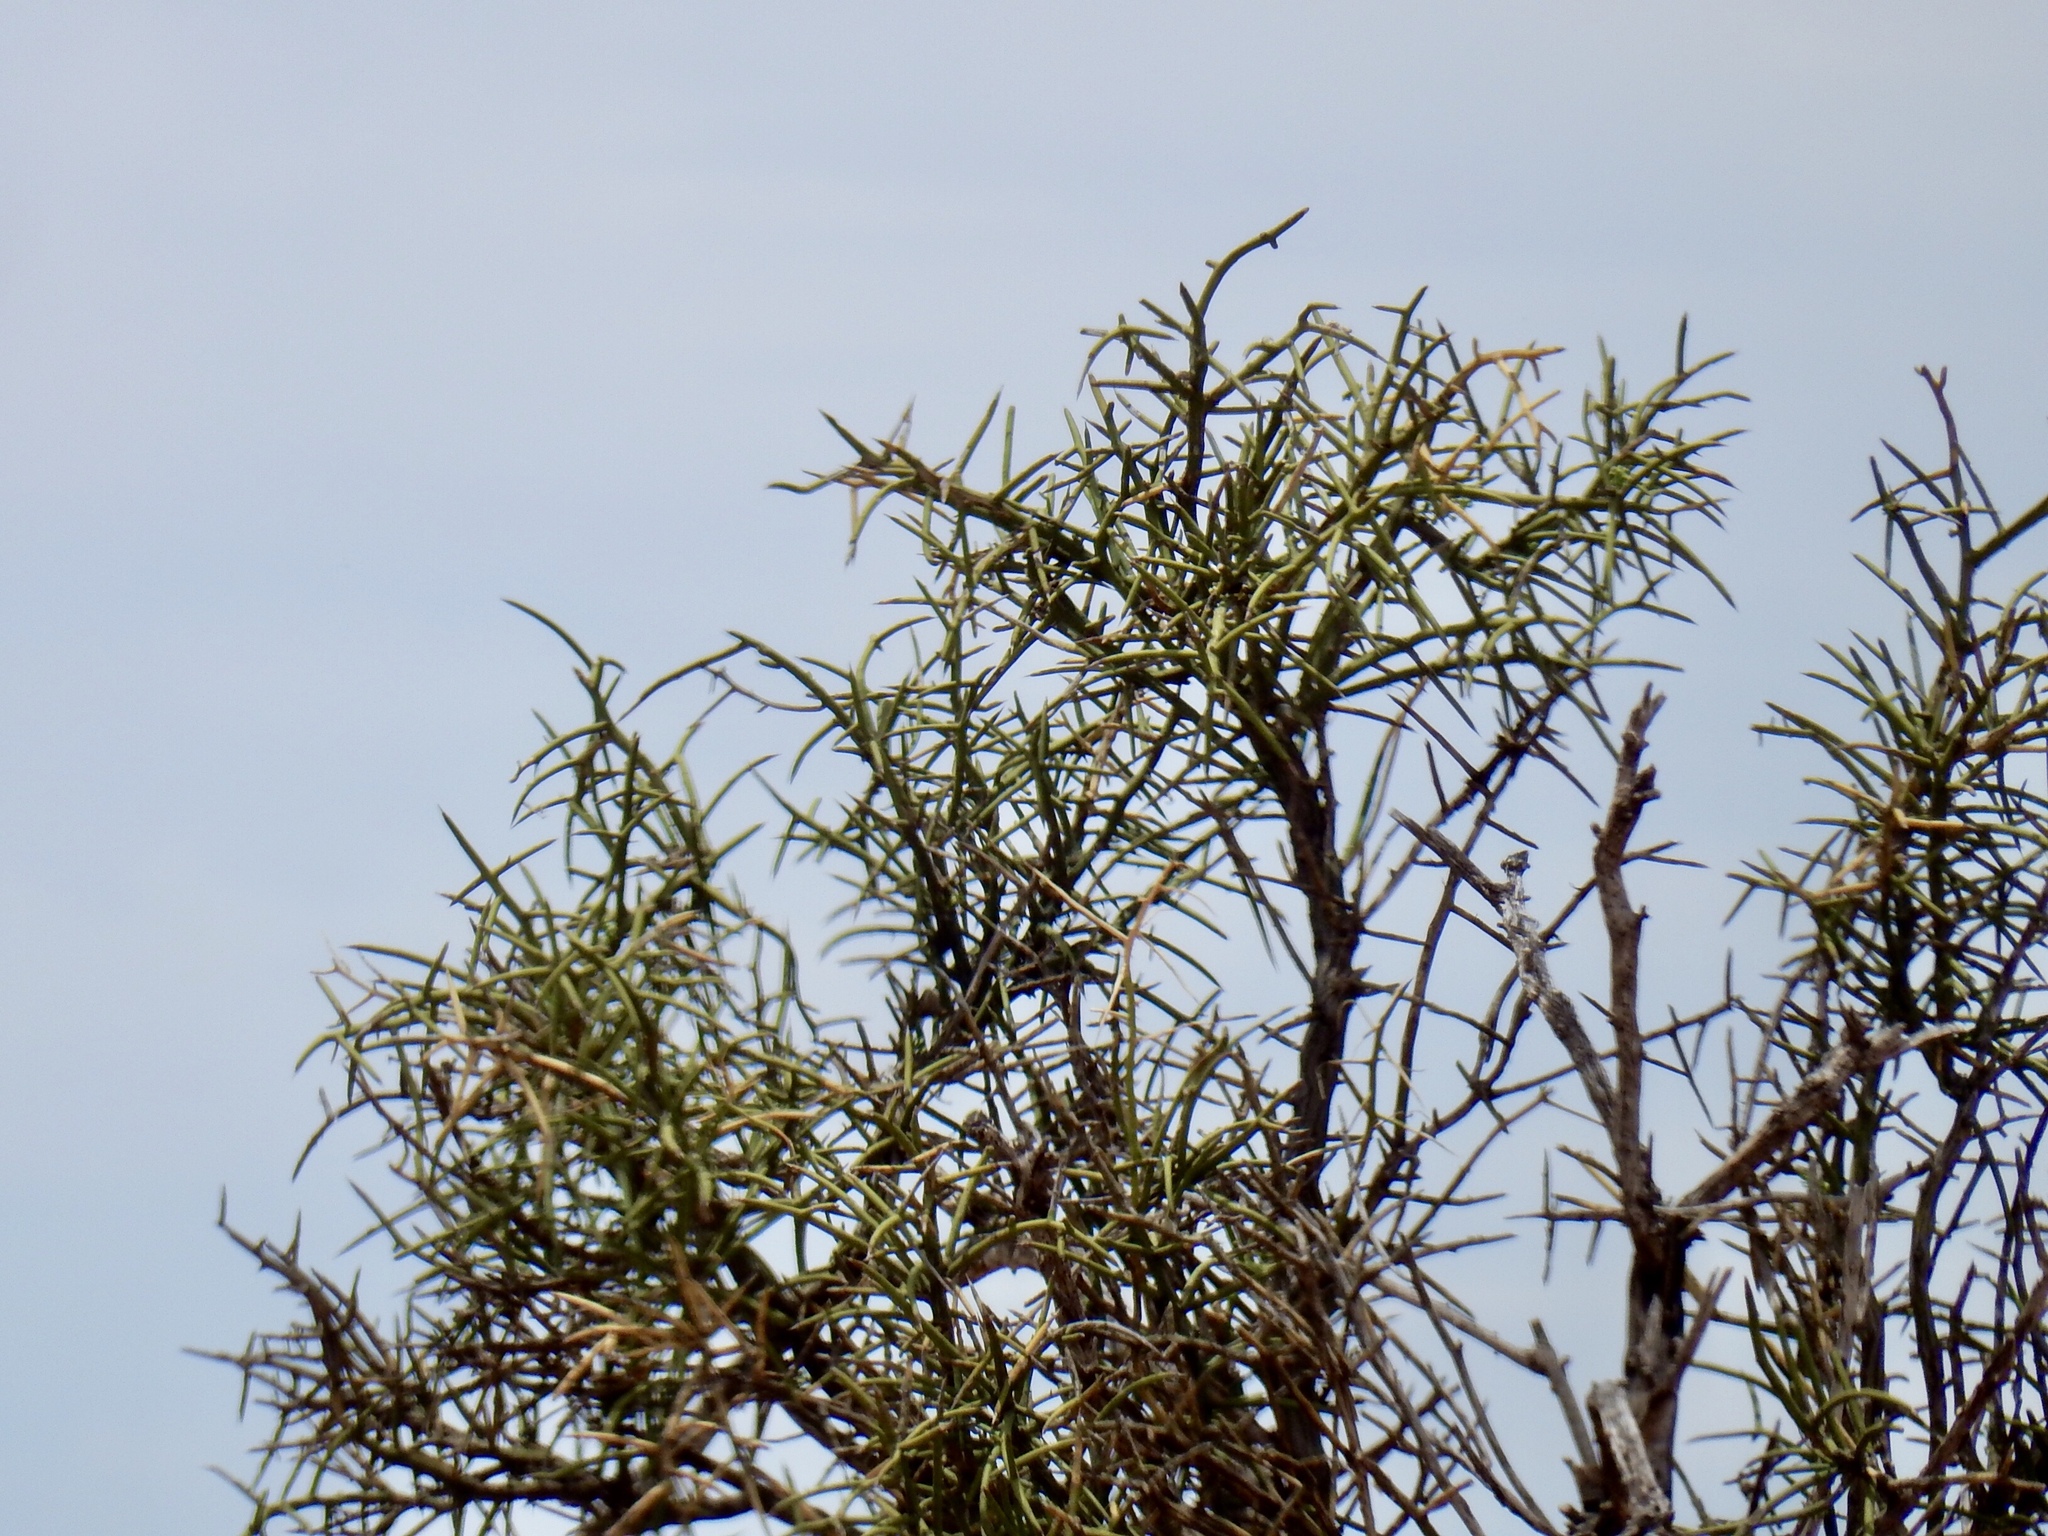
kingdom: Plantae
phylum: Tracheophyta
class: Magnoliopsida
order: Brassicales
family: Koeberliniaceae
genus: Koeberlinia
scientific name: Koeberlinia spinosa
